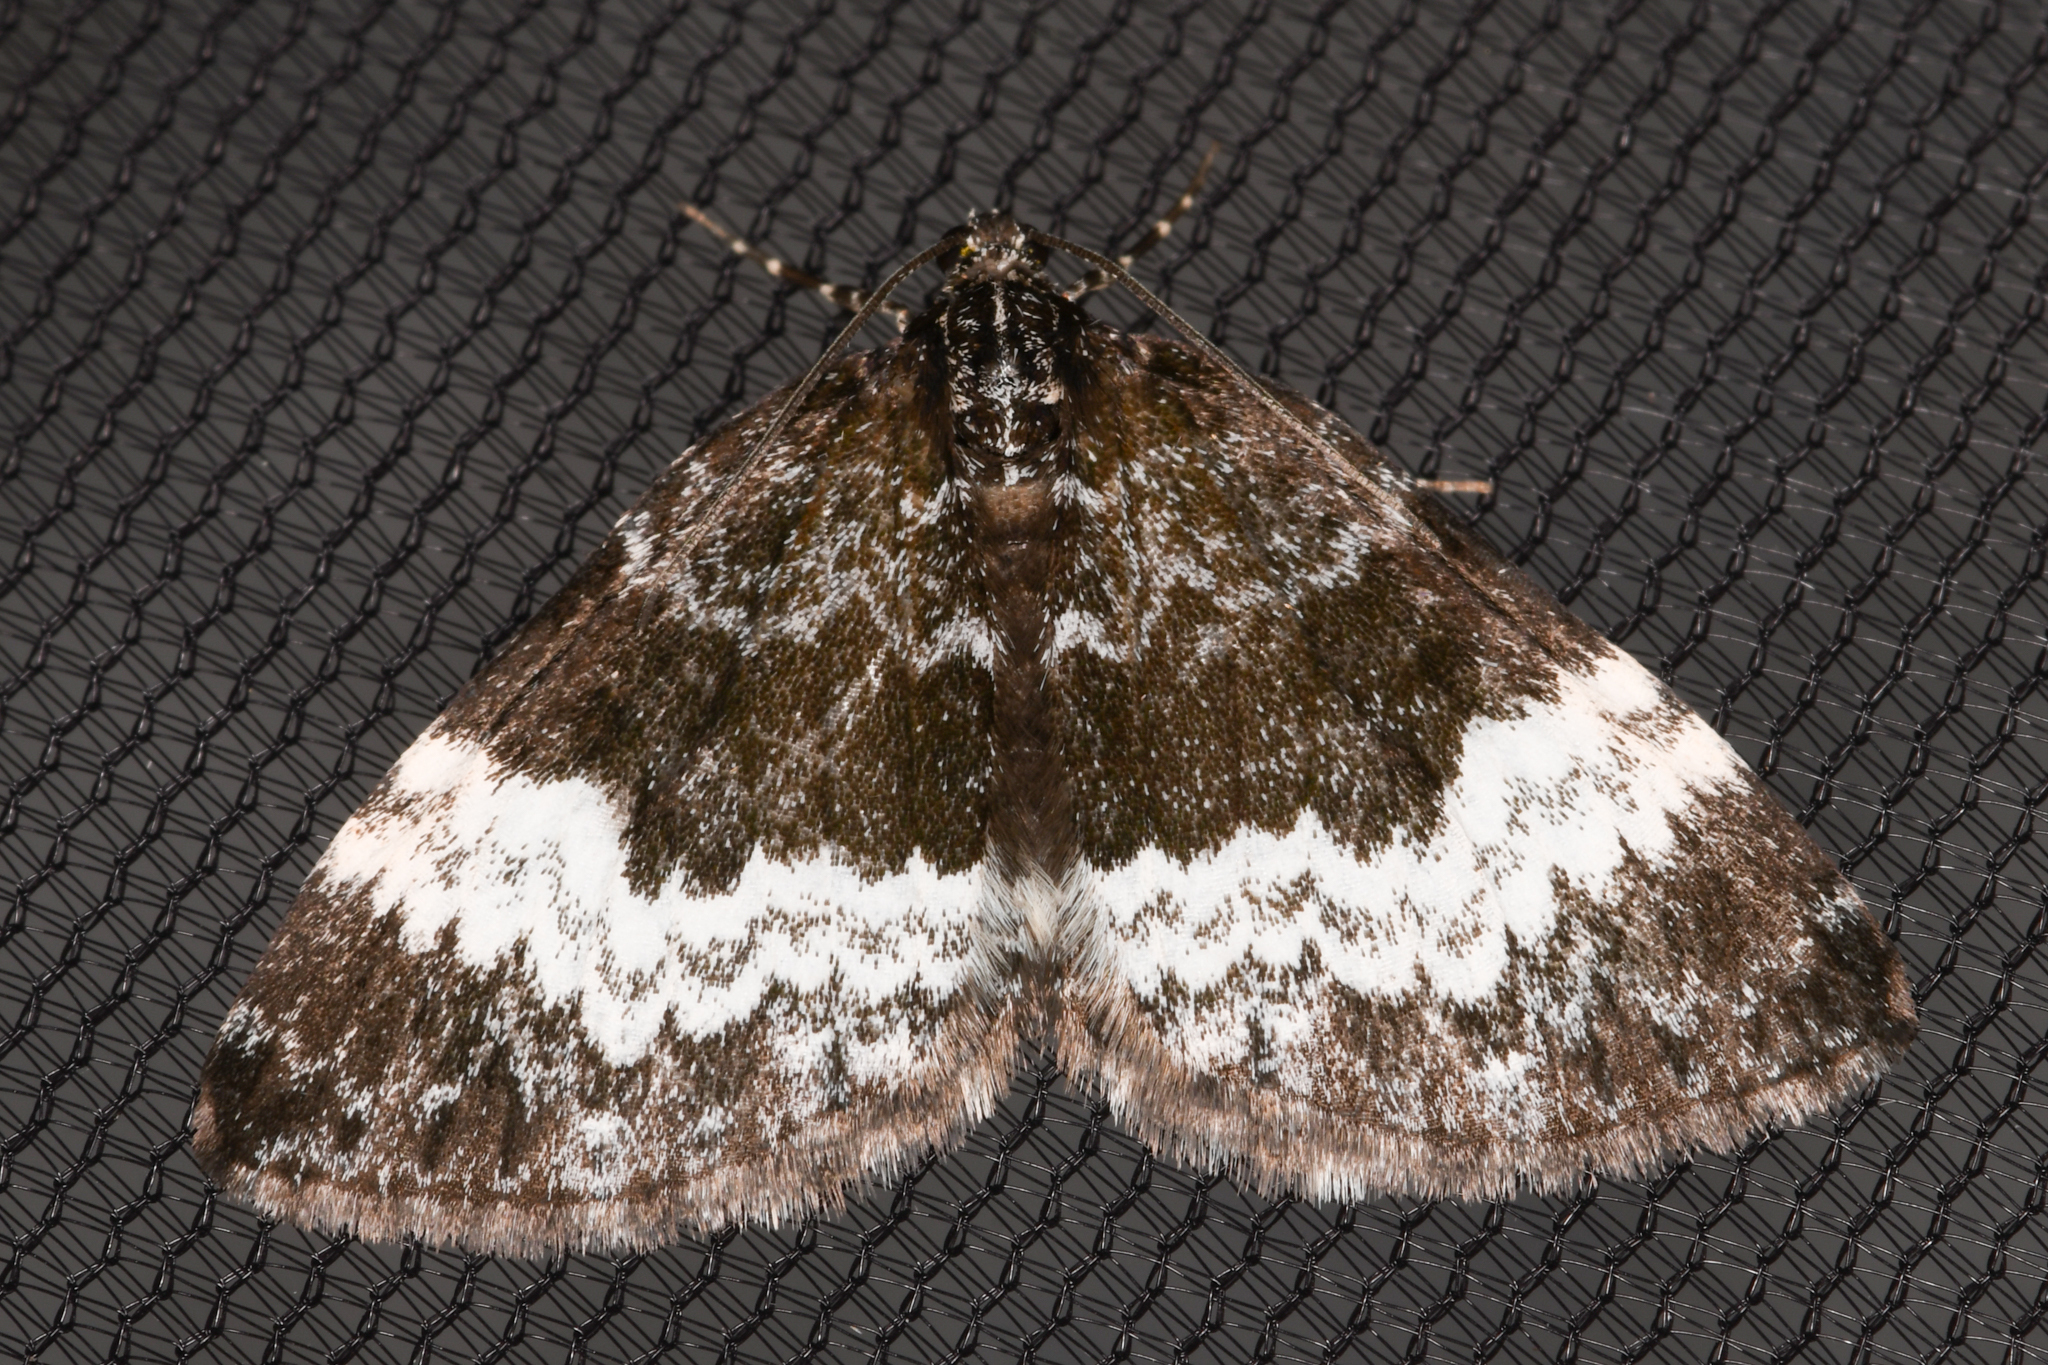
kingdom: Animalia
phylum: Arthropoda
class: Insecta
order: Lepidoptera
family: Geometridae
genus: Spargania
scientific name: Spargania luctuata
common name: White-banded carpet
